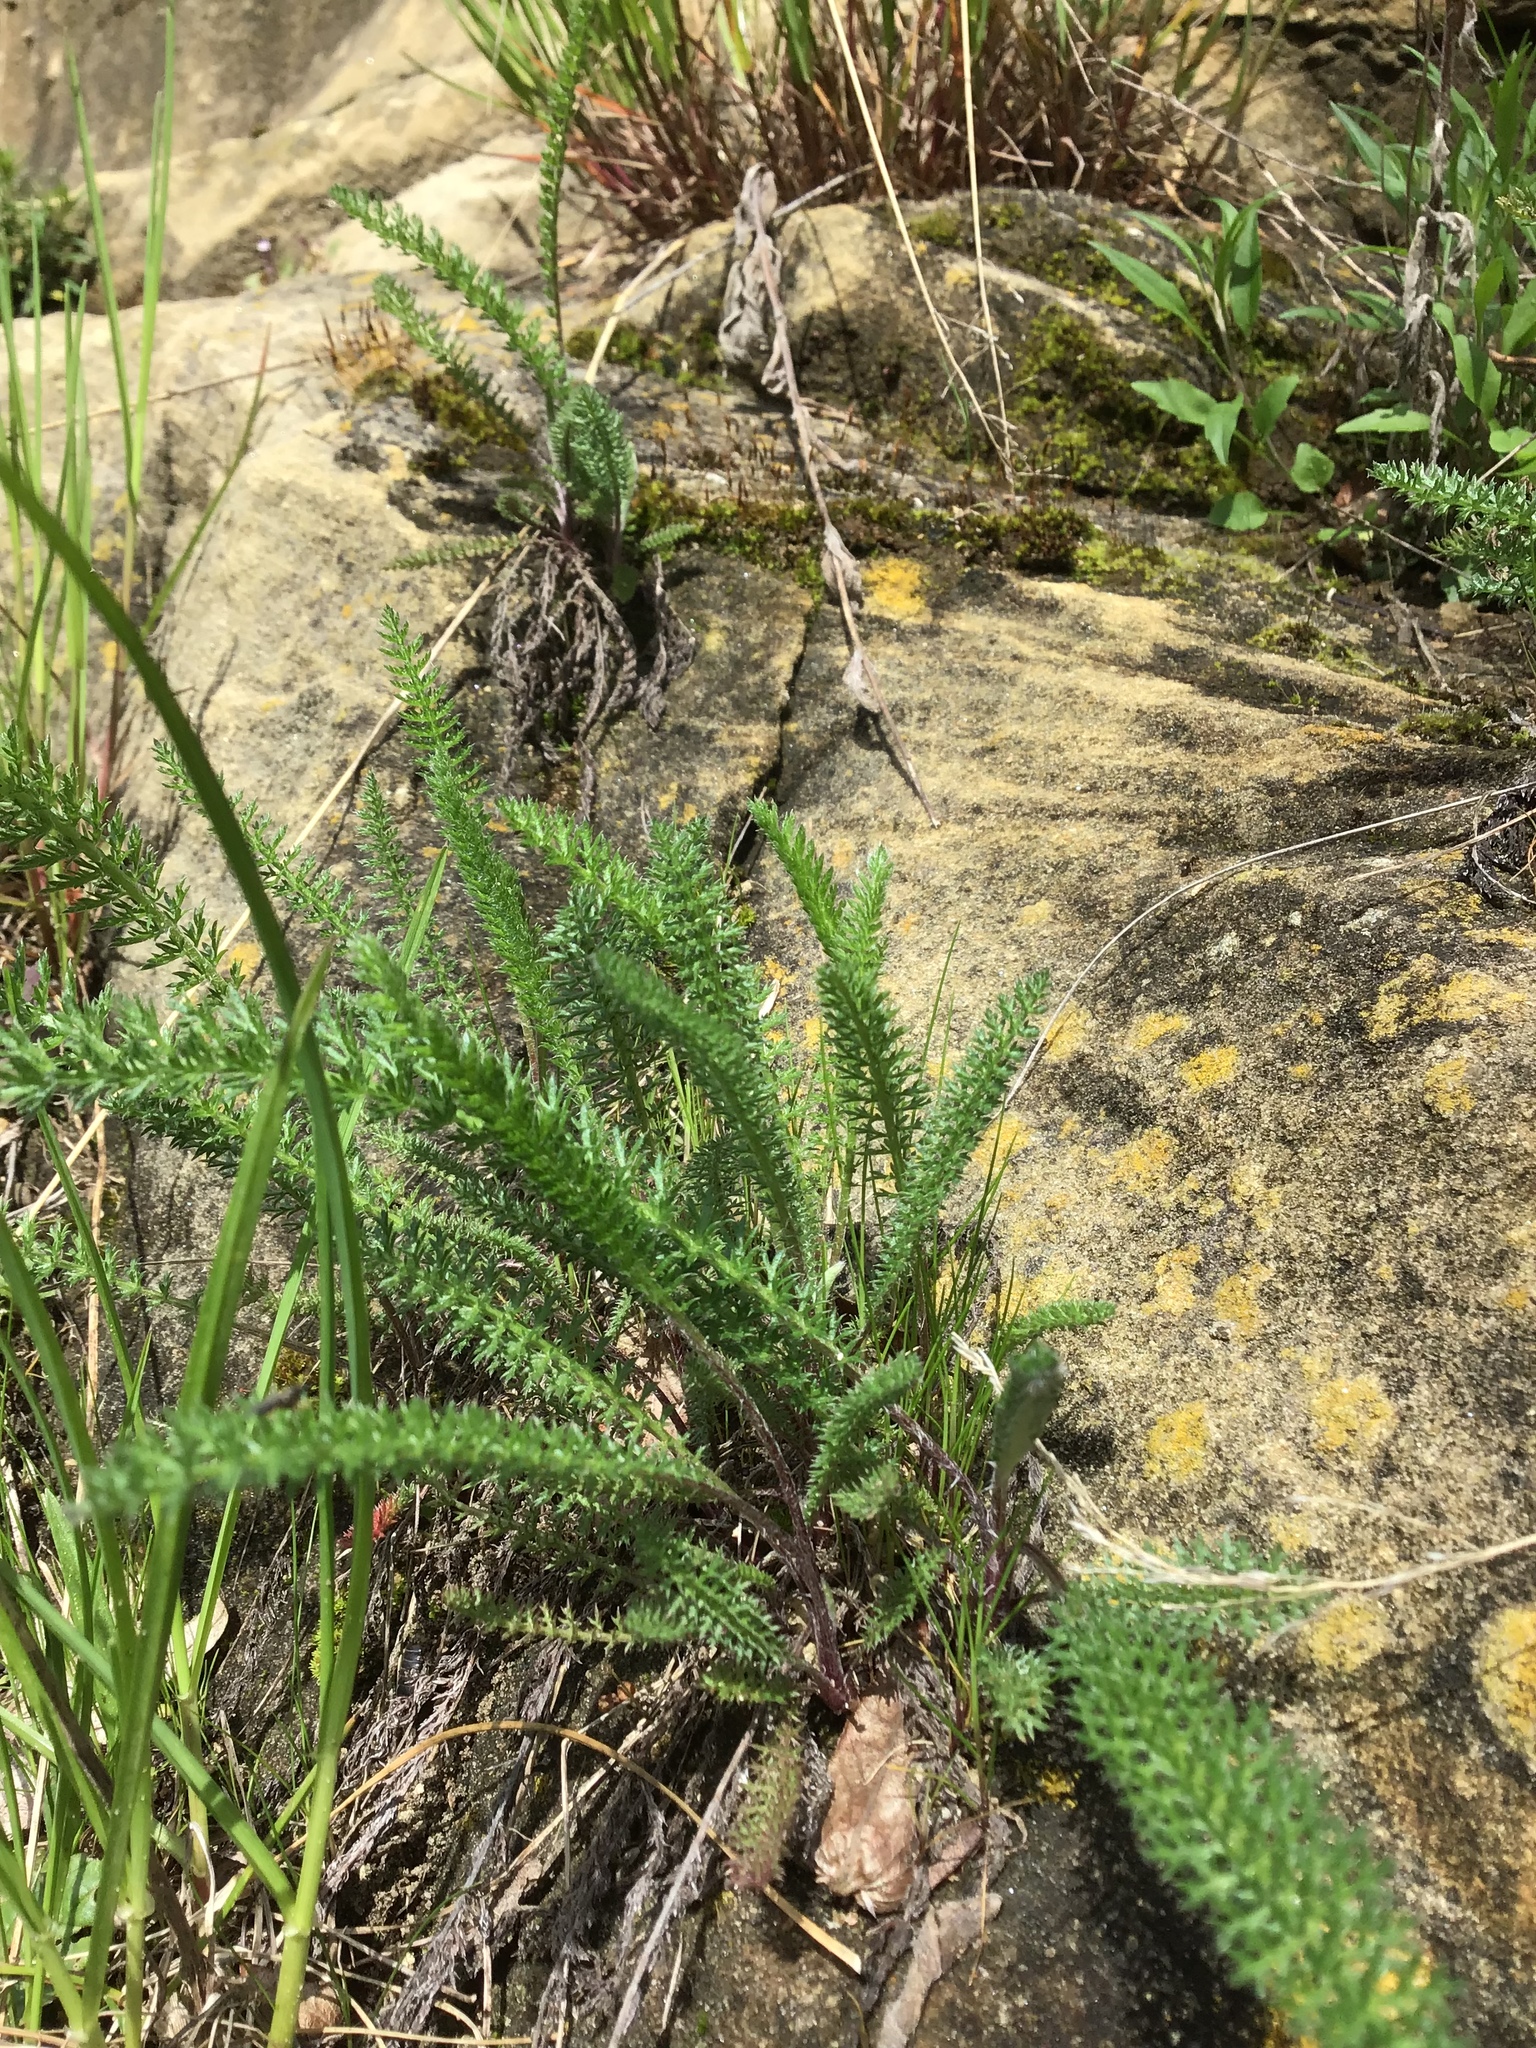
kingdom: Plantae
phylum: Tracheophyta
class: Magnoliopsida
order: Asterales
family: Asteraceae
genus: Achillea
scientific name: Achillea millefolium
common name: Yarrow
